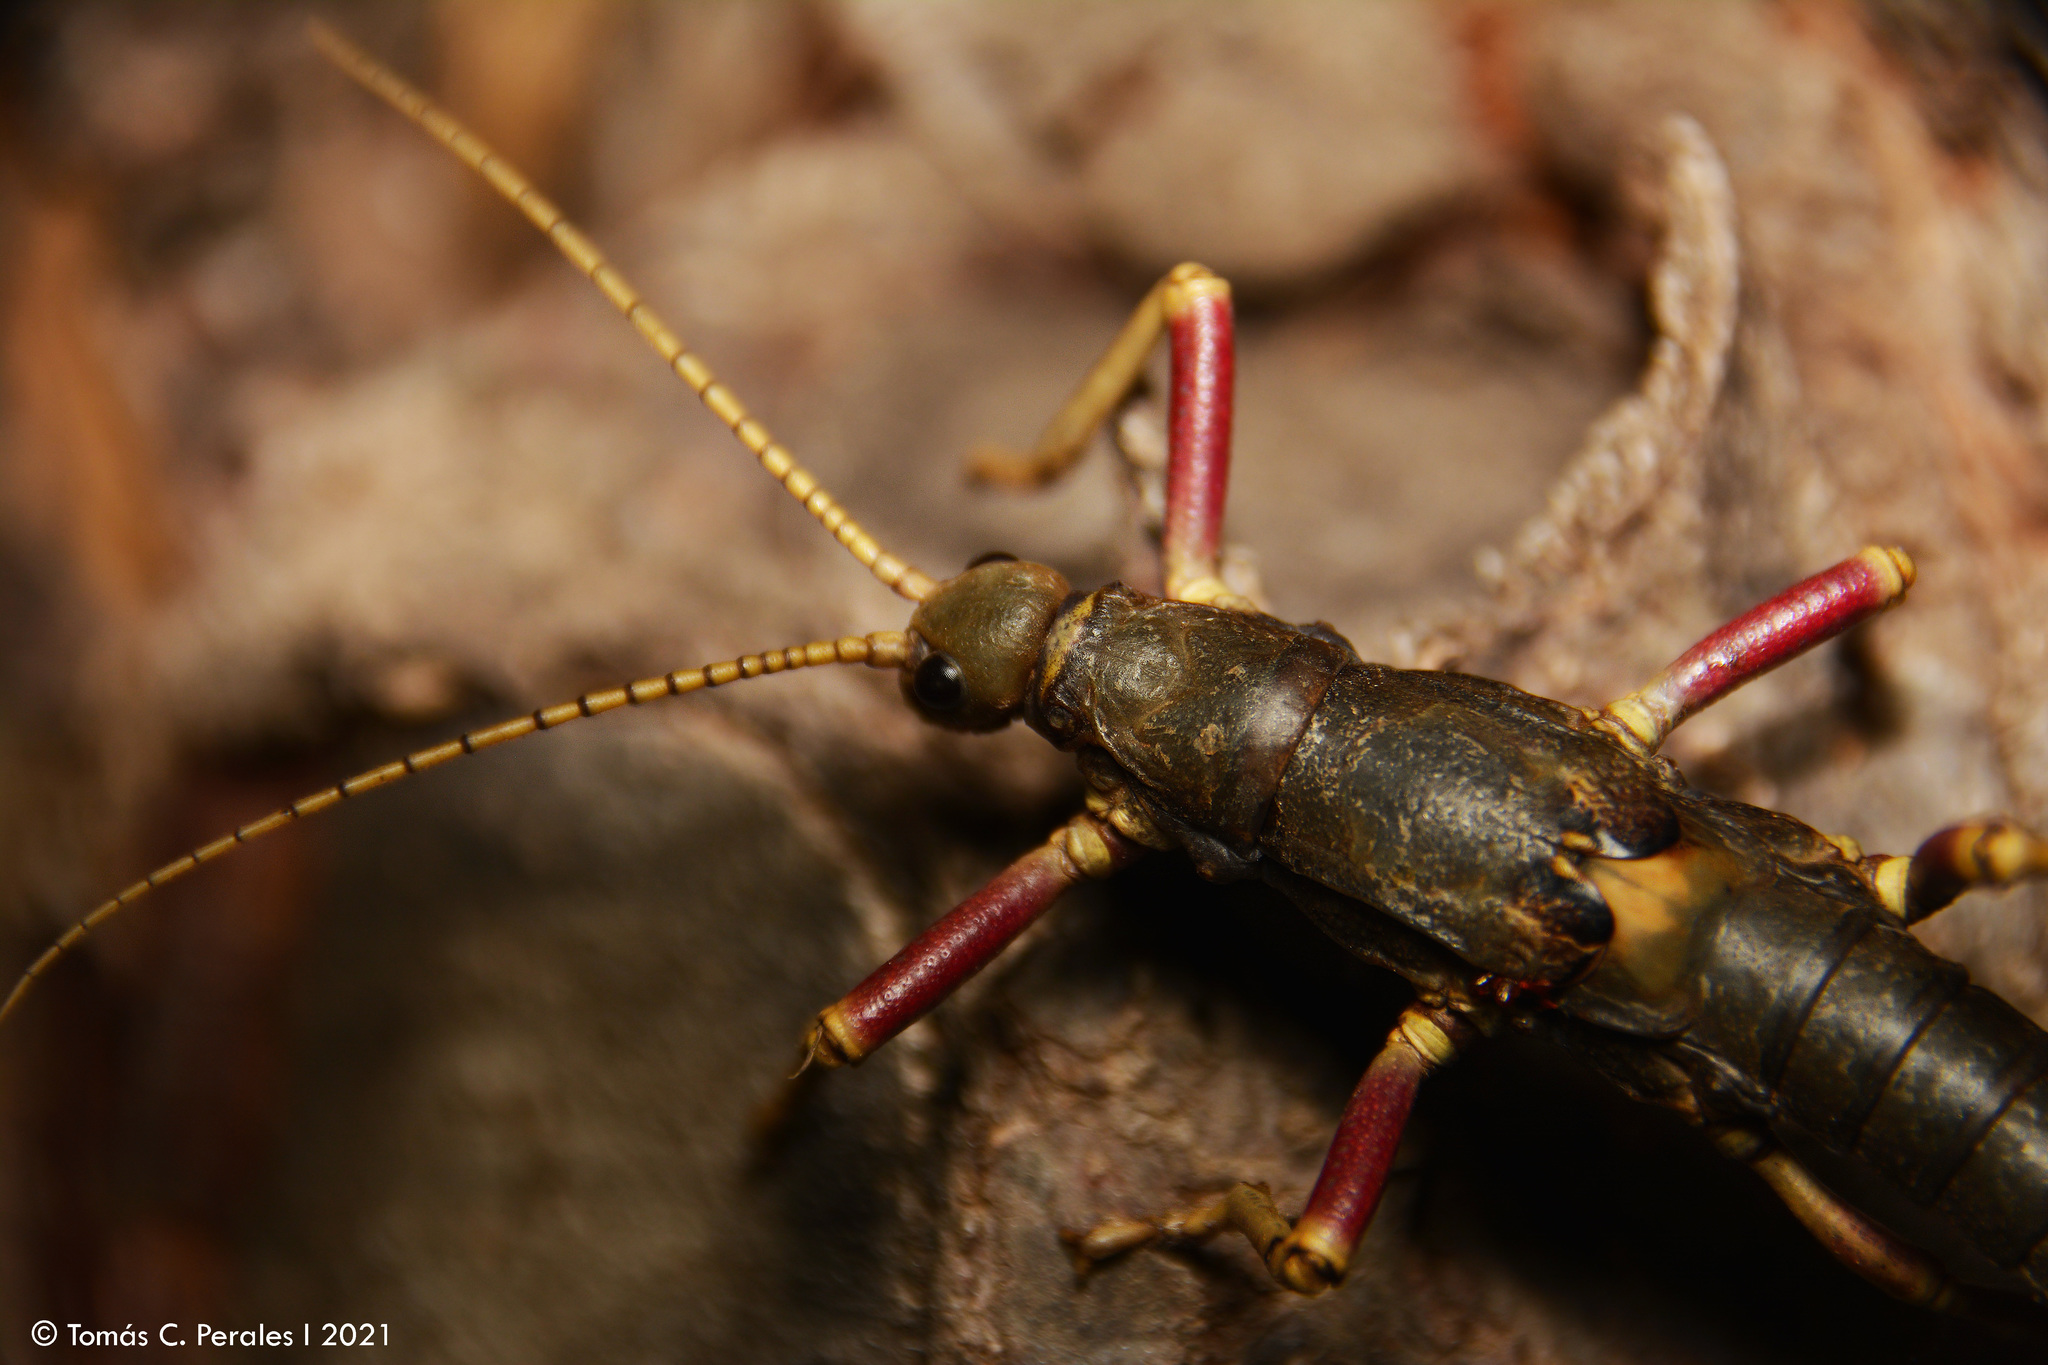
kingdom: Animalia
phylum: Arthropoda
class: Insecta
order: Phasmida
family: Agathemeridae
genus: Agathemera
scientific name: Agathemera luteola
